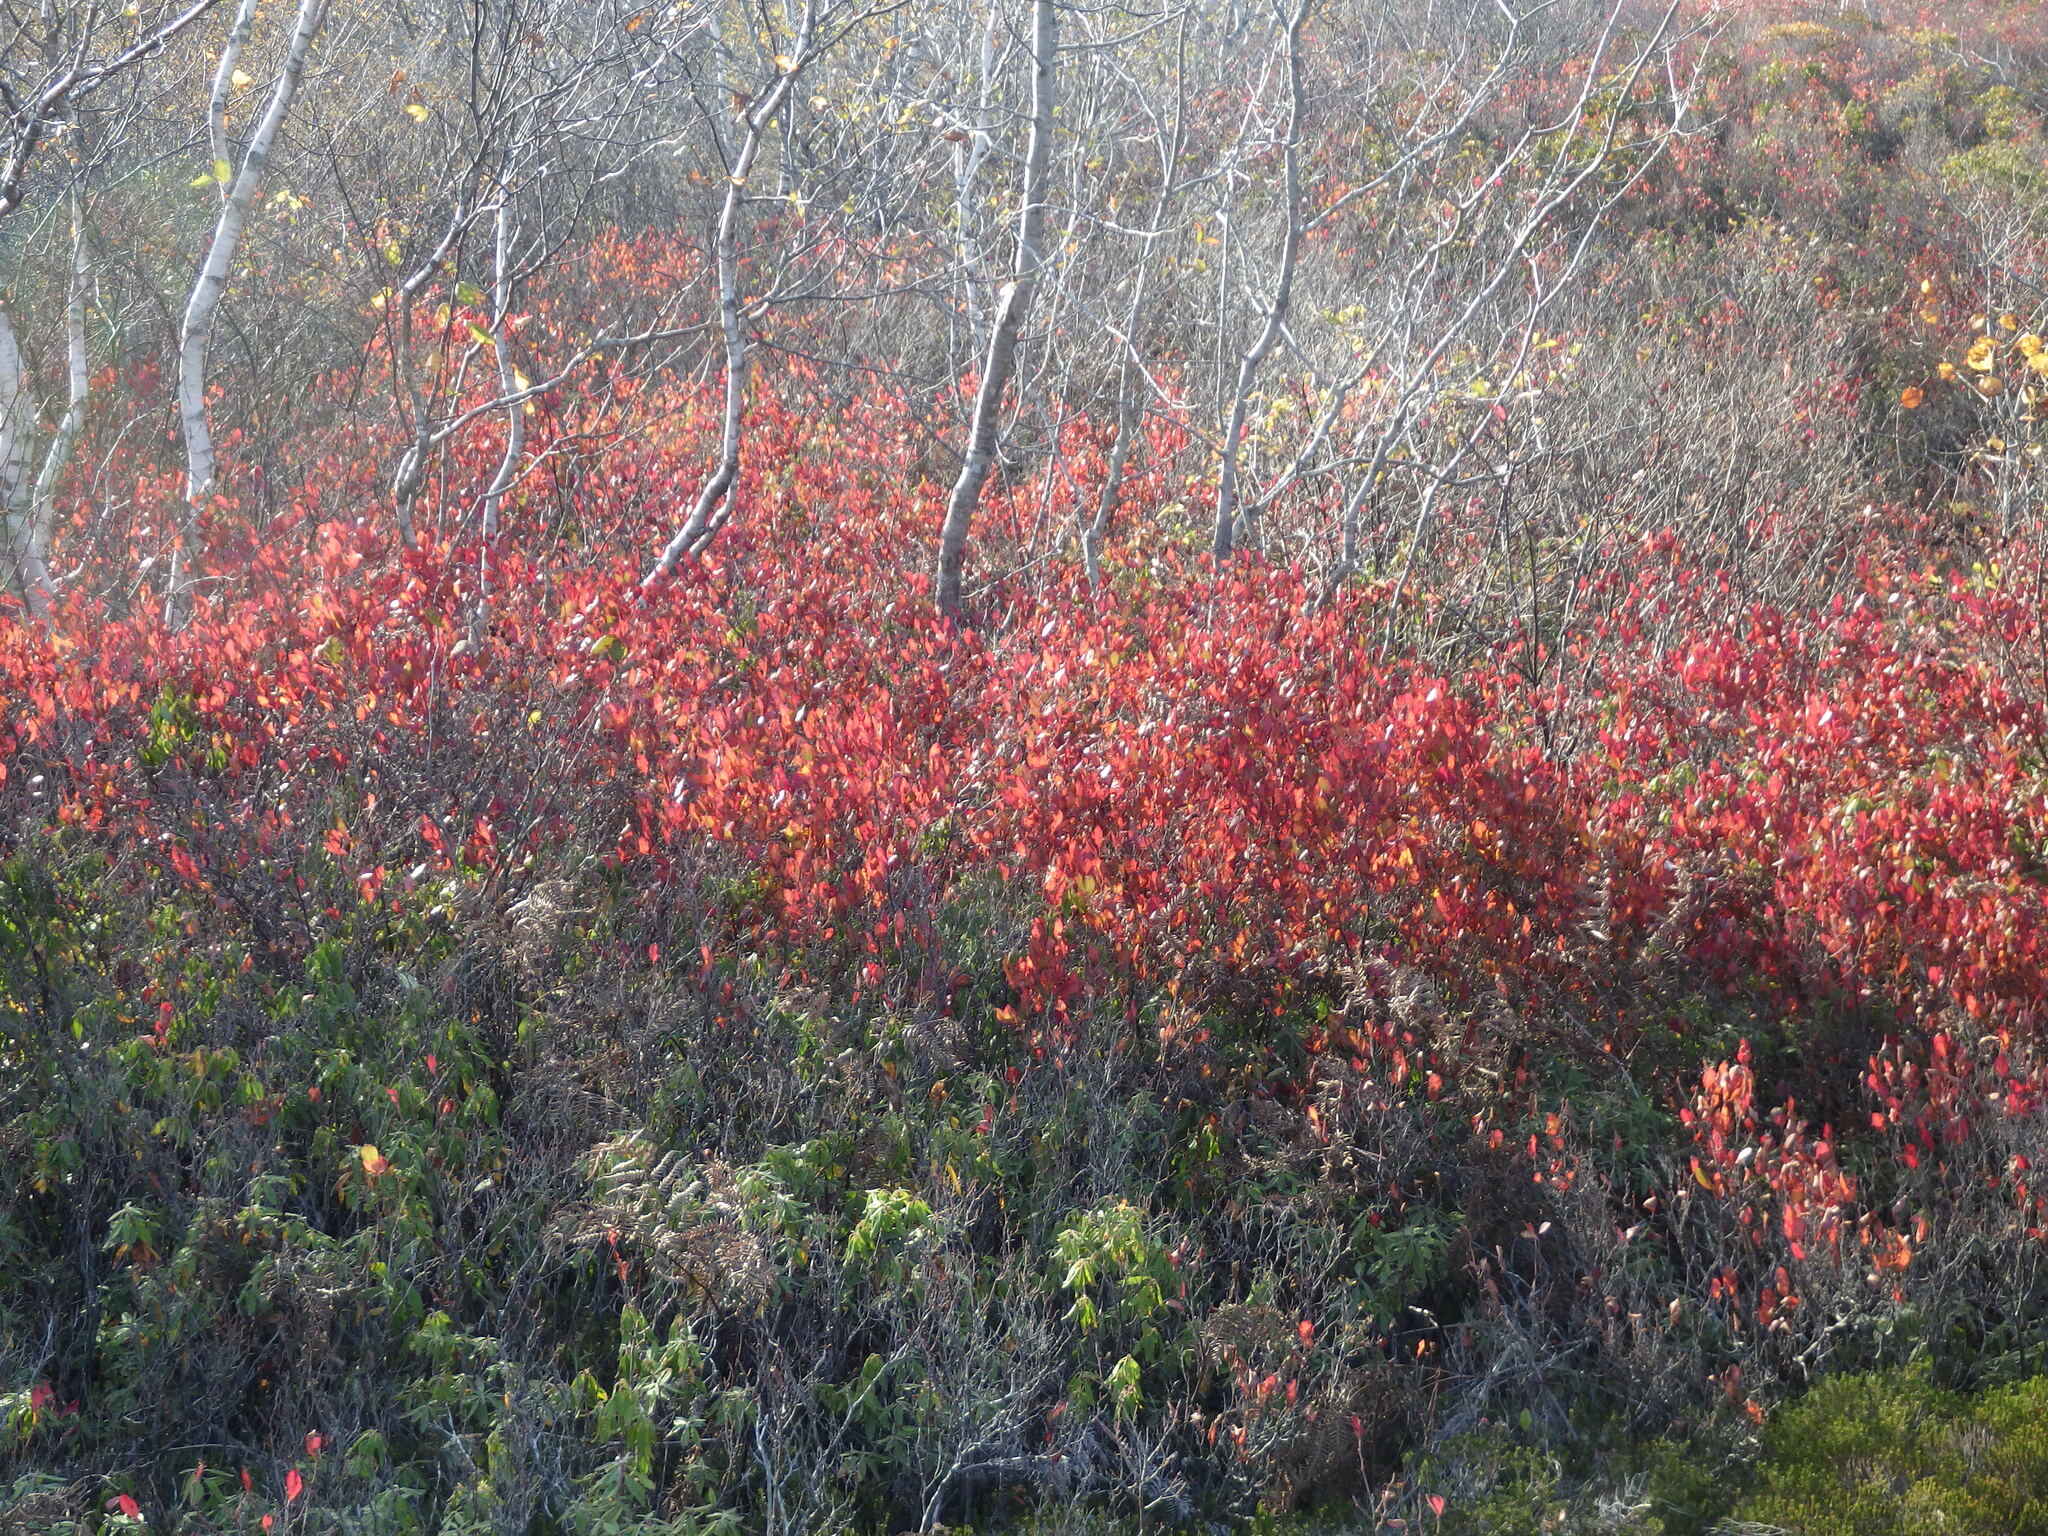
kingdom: Plantae
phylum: Tracheophyta
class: Magnoliopsida
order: Ericales
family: Ericaceae
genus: Gaylussacia
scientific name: Gaylussacia baccata
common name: Black huckleberry
